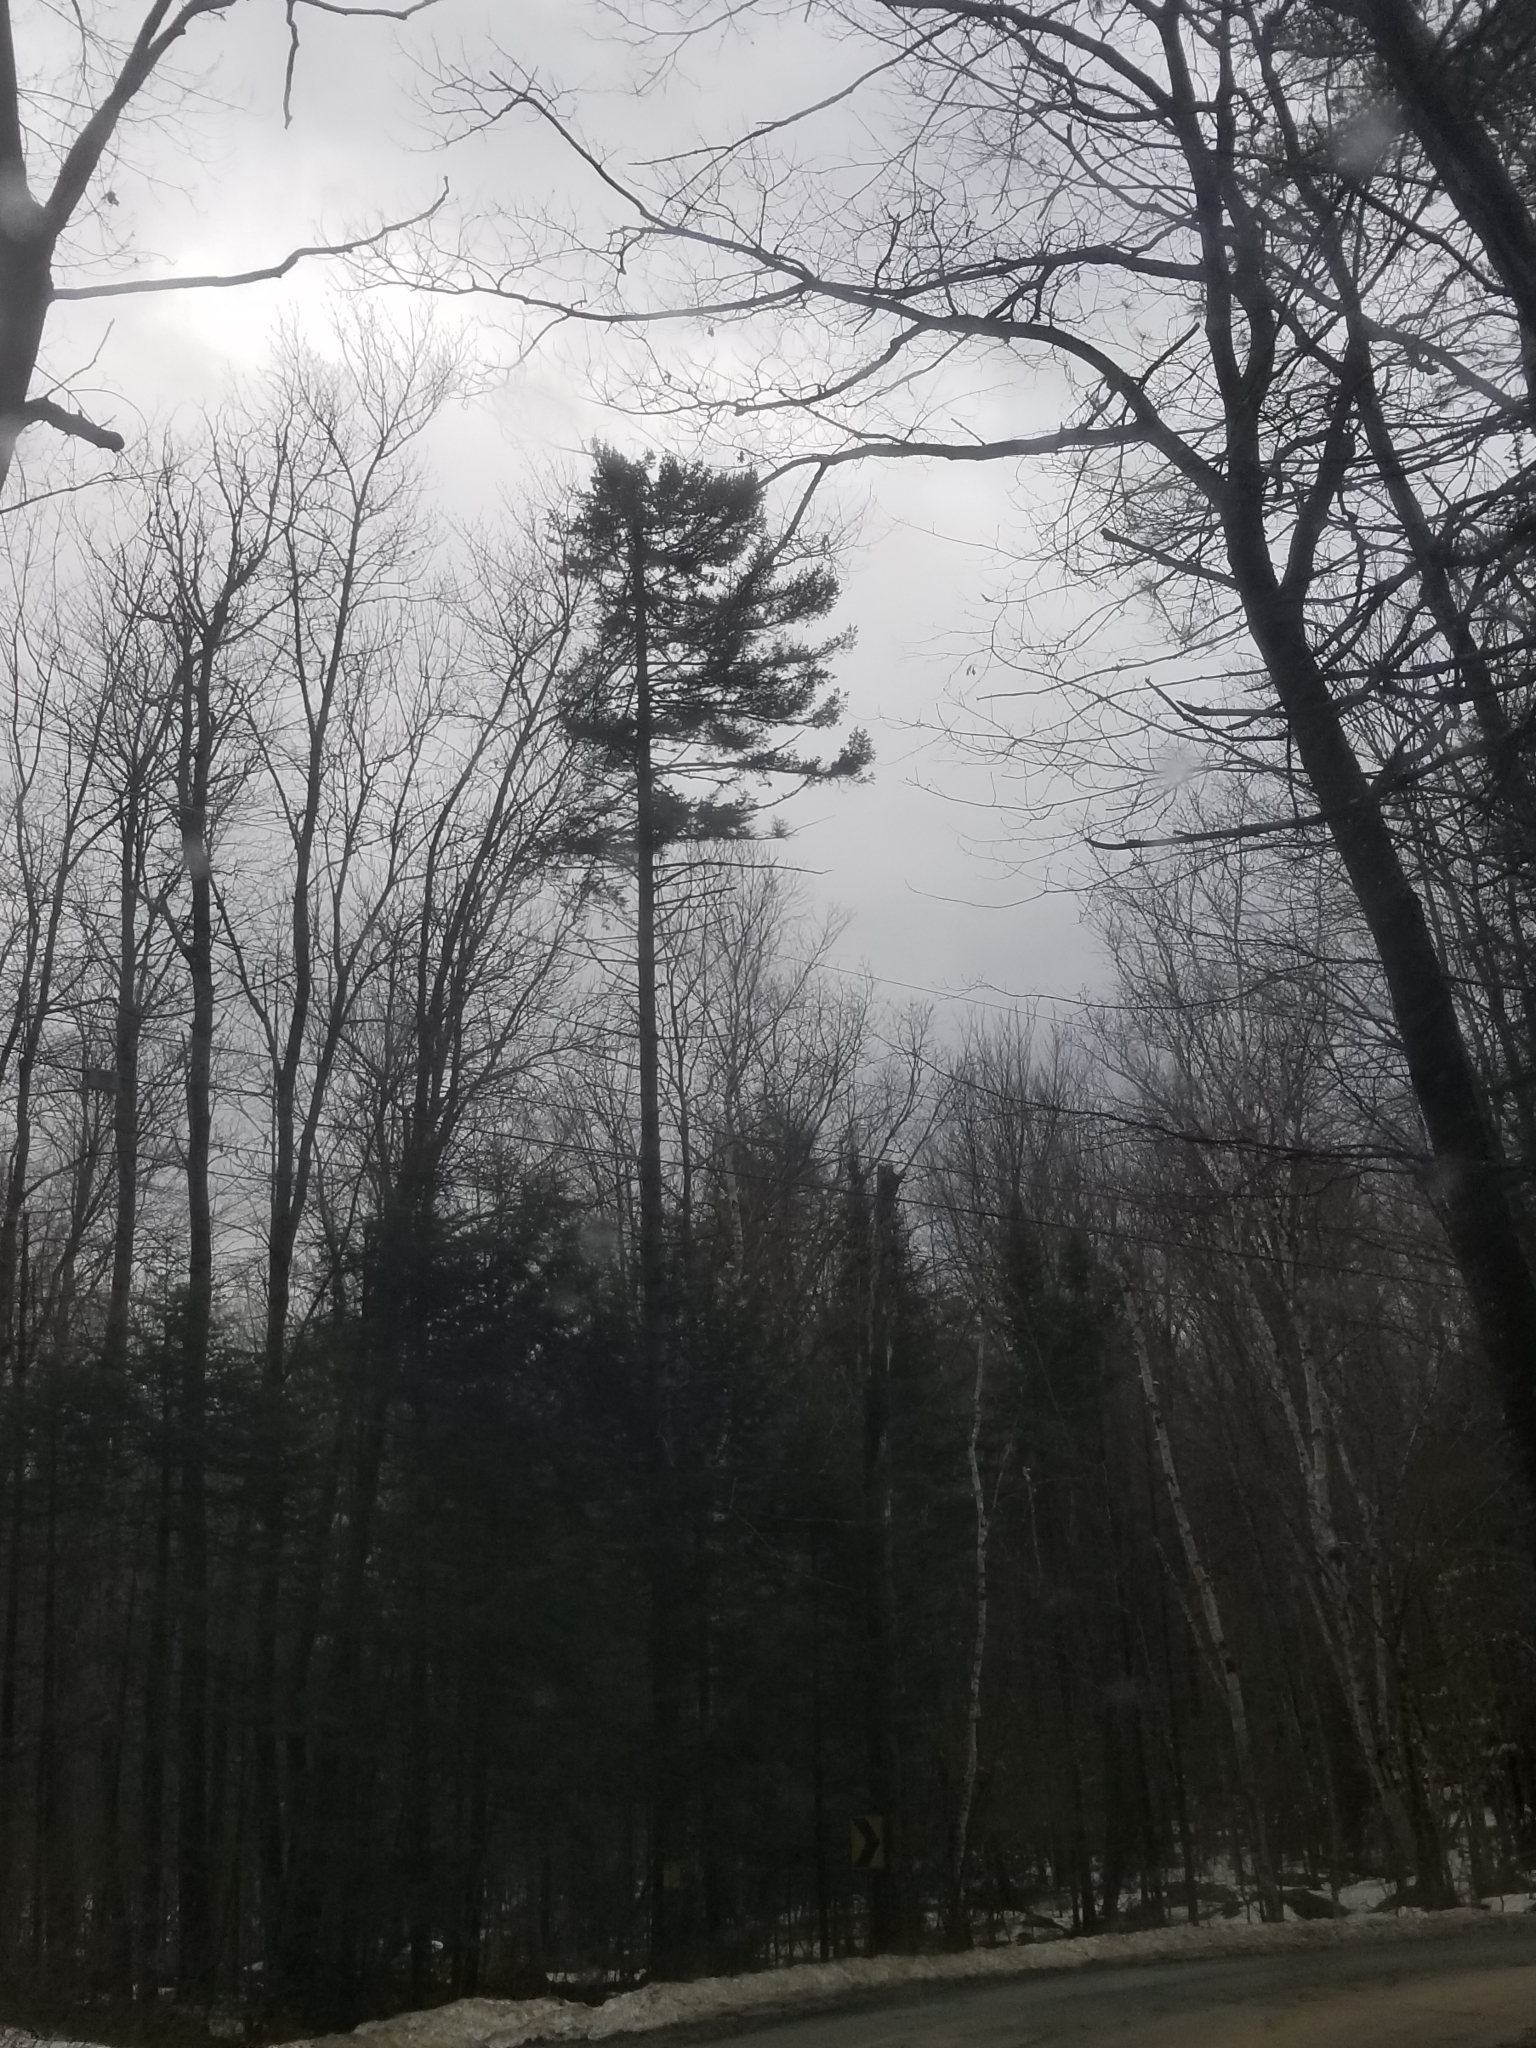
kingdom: Plantae
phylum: Tracheophyta
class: Pinopsida
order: Pinales
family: Pinaceae
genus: Pinus
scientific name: Pinus strobus
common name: Weymouth pine
